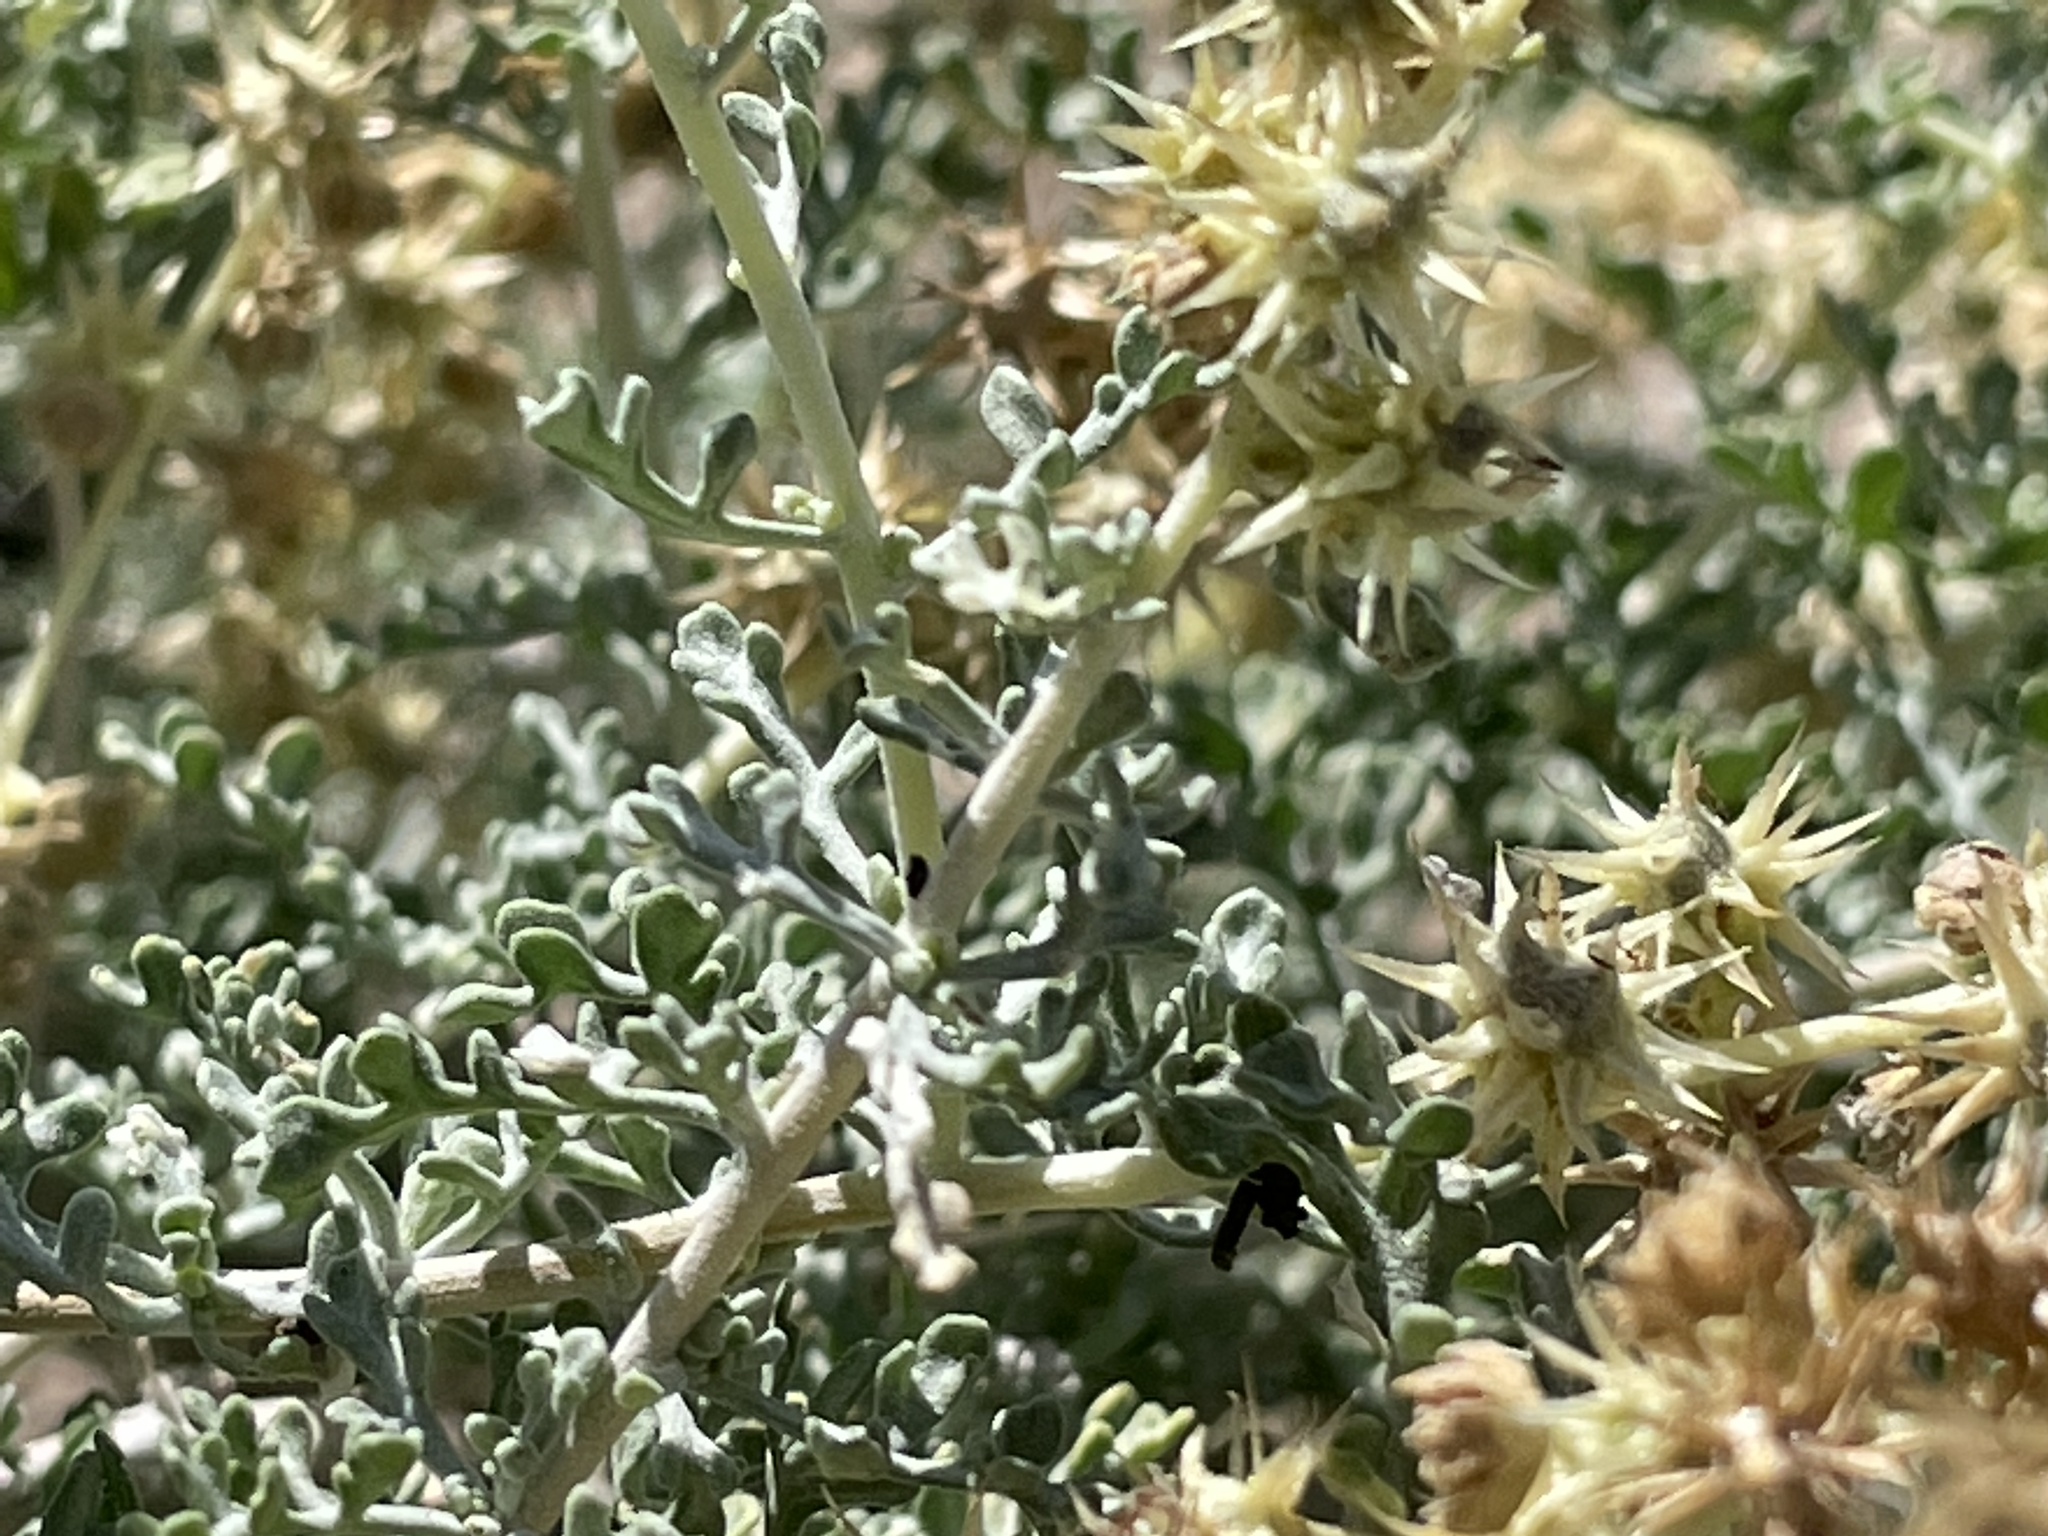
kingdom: Plantae
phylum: Tracheophyta
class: Magnoliopsida
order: Asterales
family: Asteraceae
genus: Ambrosia
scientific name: Ambrosia dumosa
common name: Bur-sage
